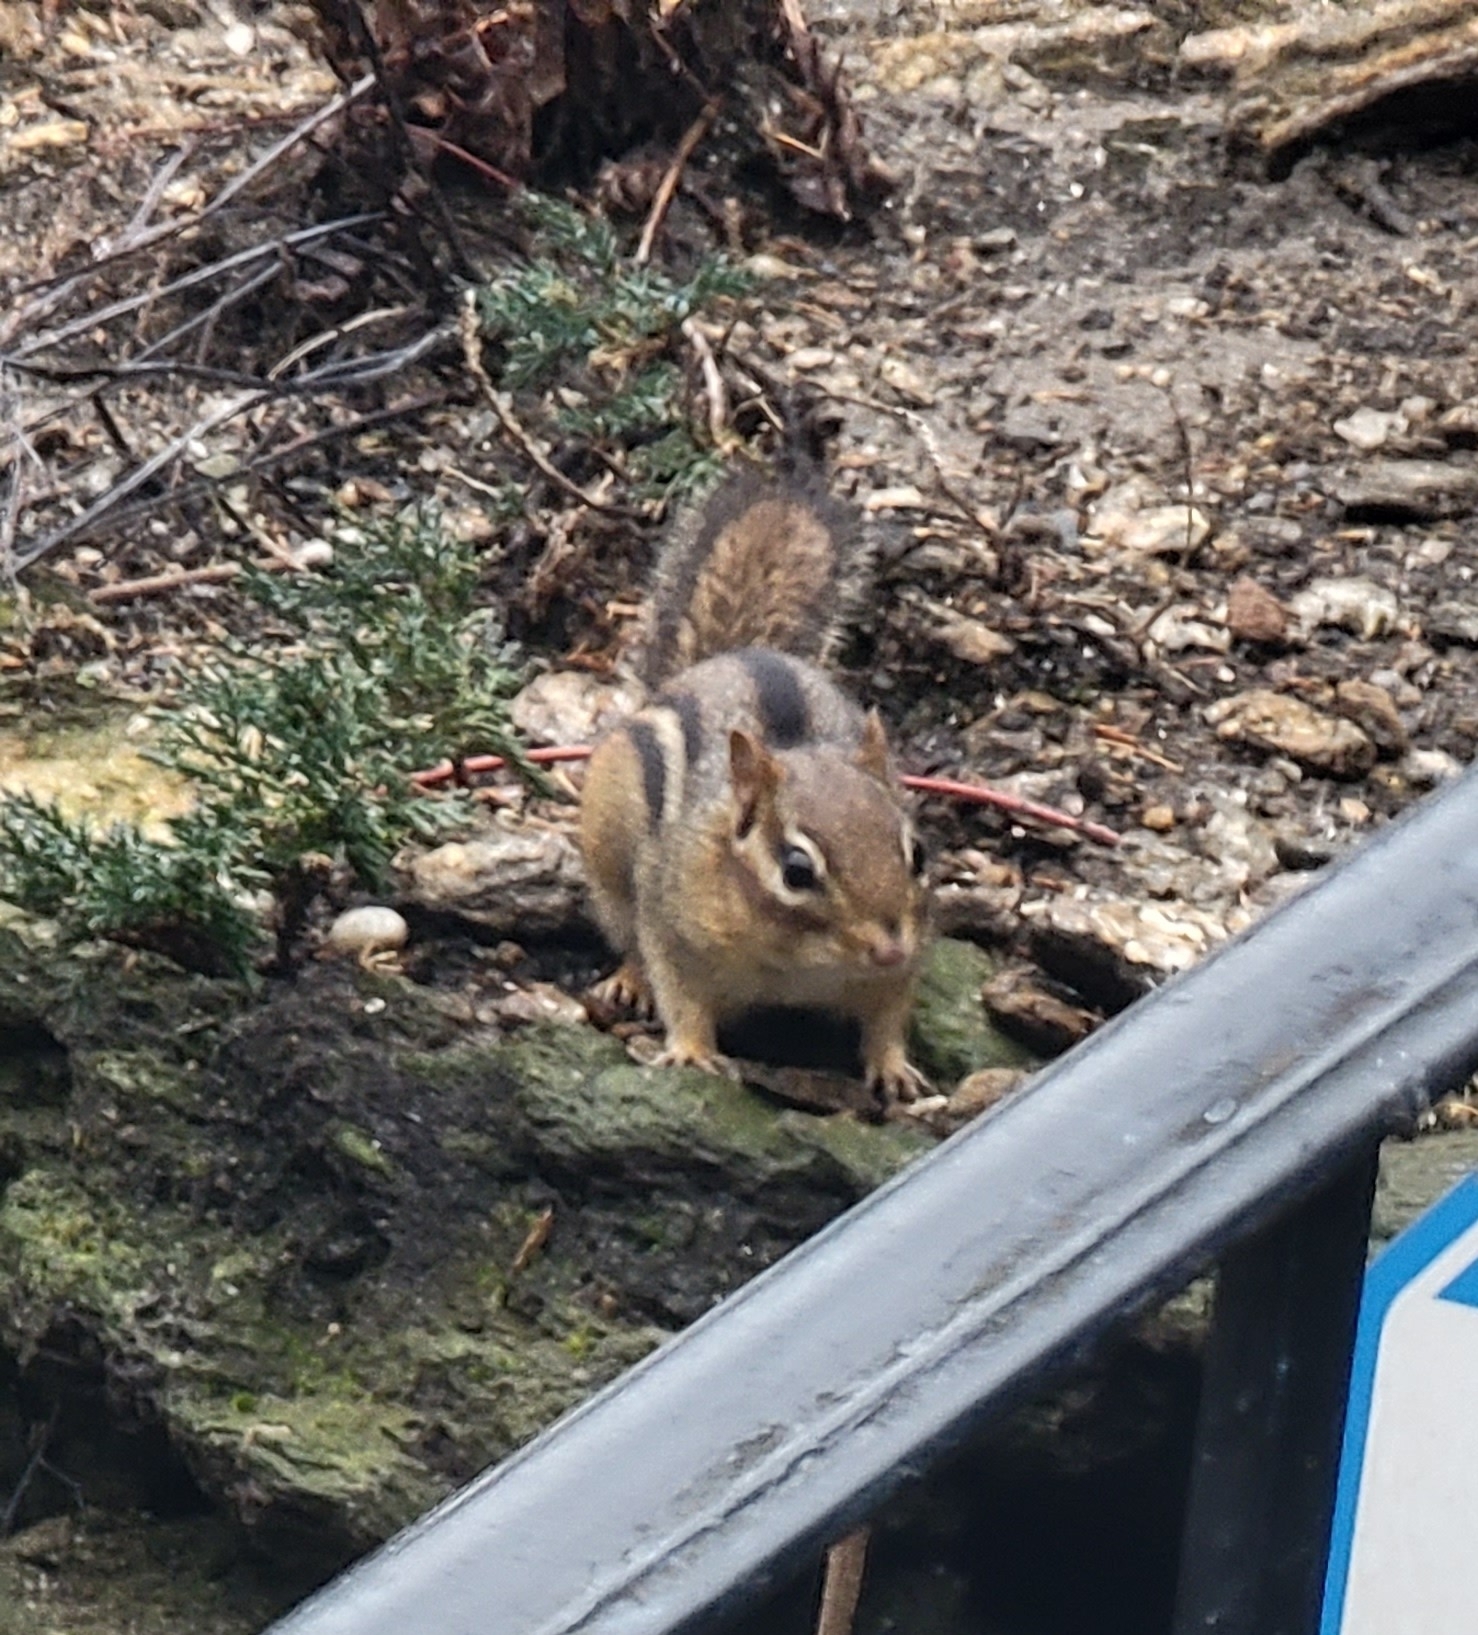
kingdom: Animalia
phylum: Chordata
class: Mammalia
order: Rodentia
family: Sciuridae
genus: Tamias
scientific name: Tamias striatus
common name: Eastern chipmunk
